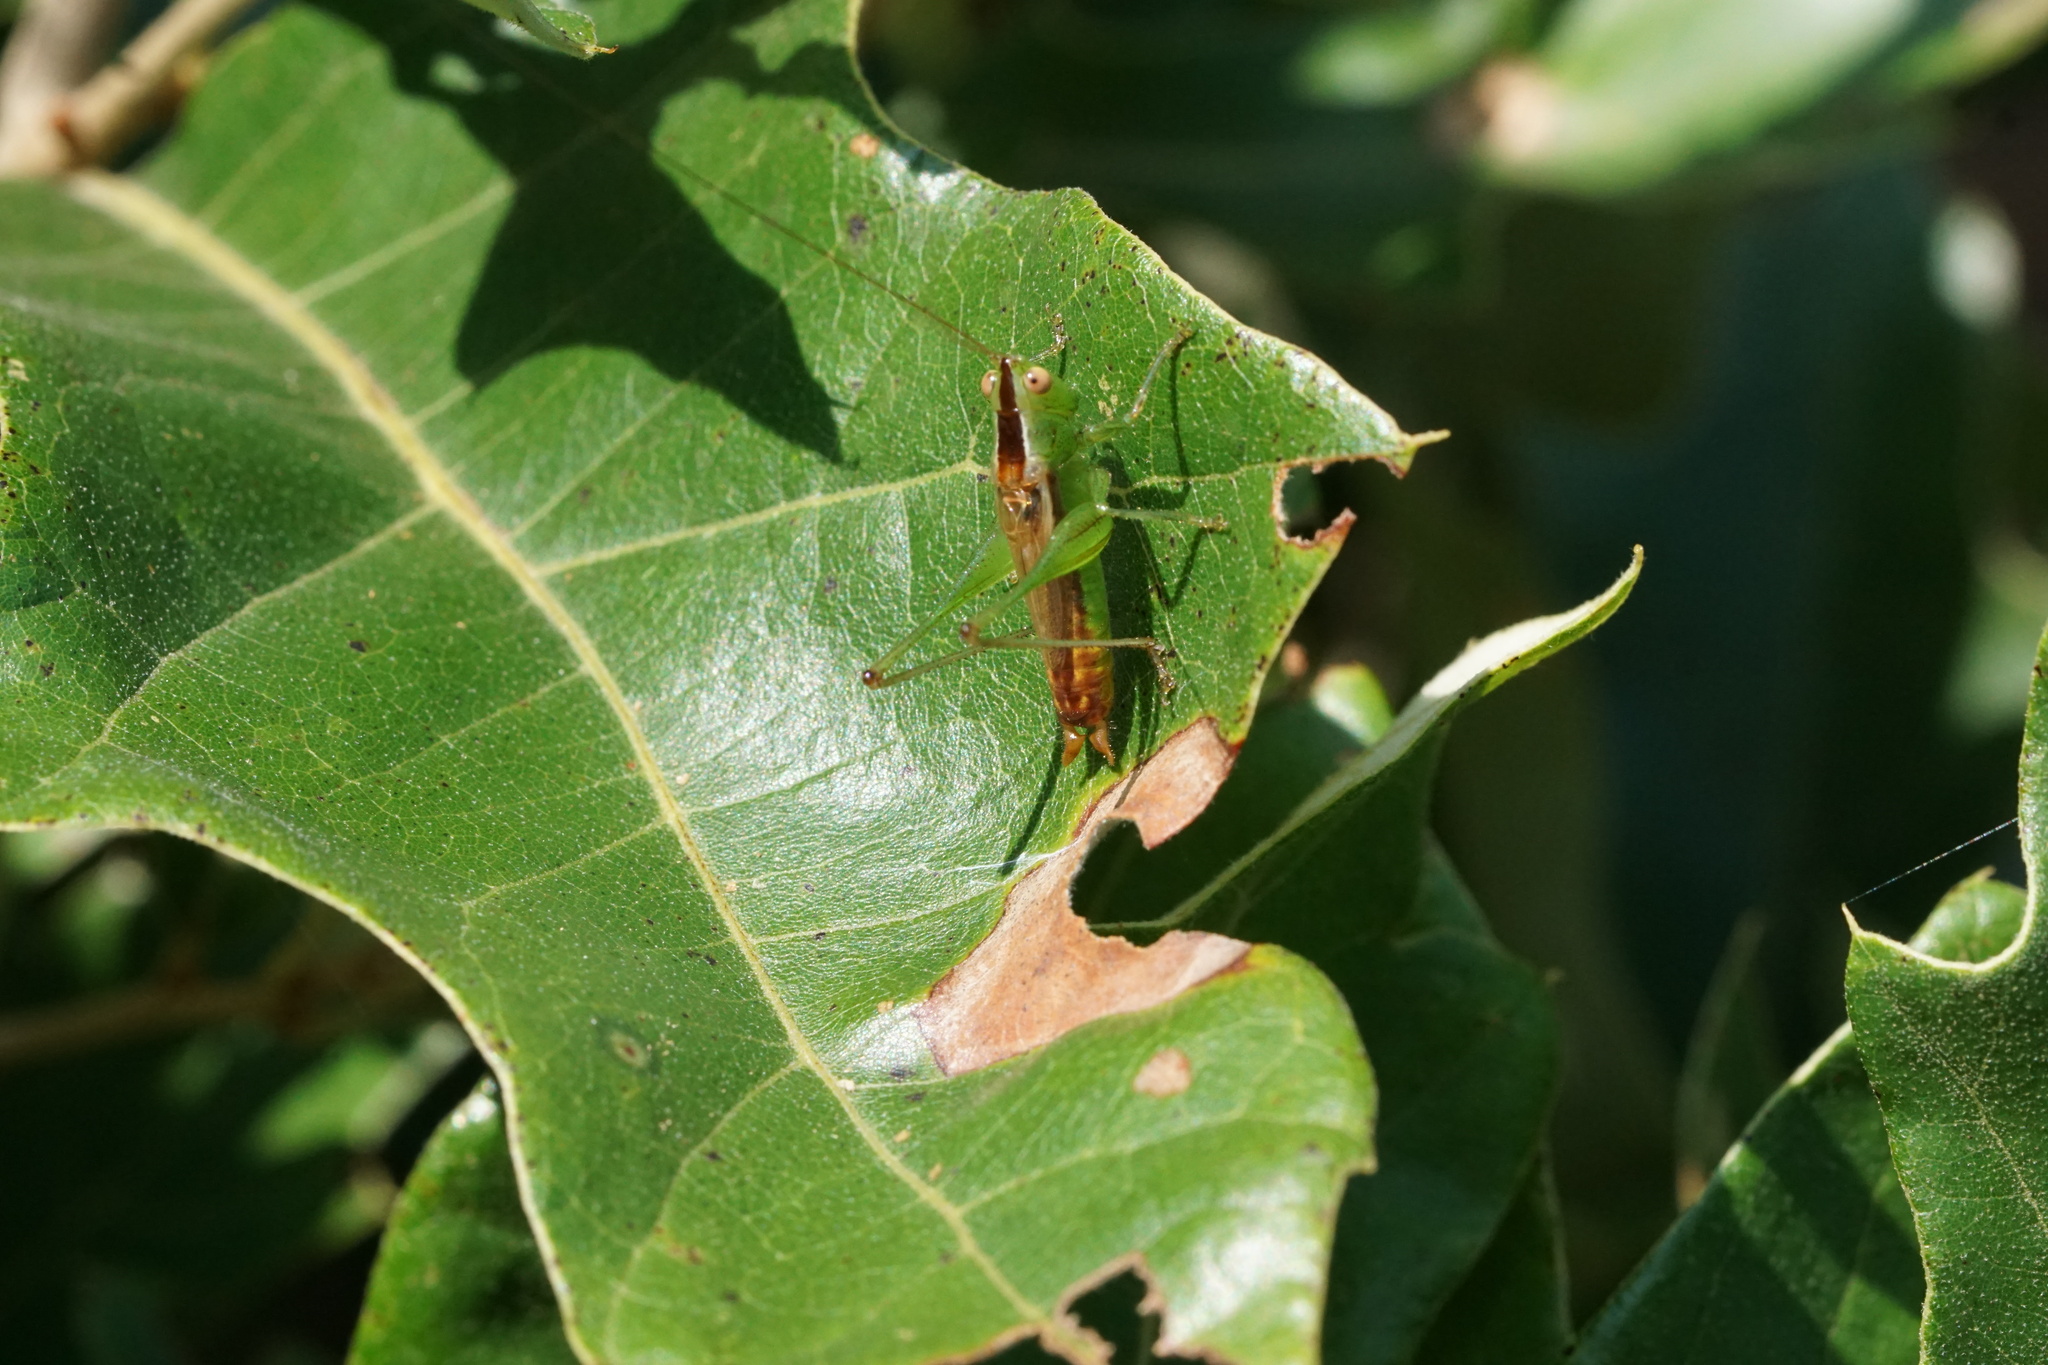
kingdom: Animalia
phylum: Arthropoda
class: Insecta
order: Orthoptera
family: Tettigoniidae
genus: Conocephalus
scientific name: Conocephalus brevipennis
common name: Short-winged meadow katydid
